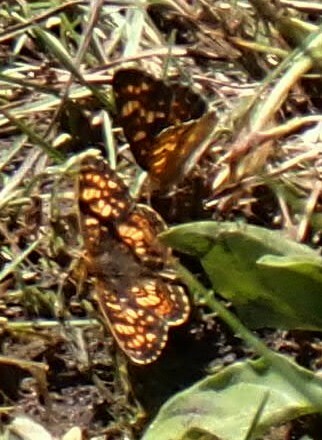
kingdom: Animalia
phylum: Arthropoda
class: Insecta
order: Lepidoptera
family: Nymphalidae
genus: Phyciodes
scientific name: Phyciodes tharos
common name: Pearl crescent
